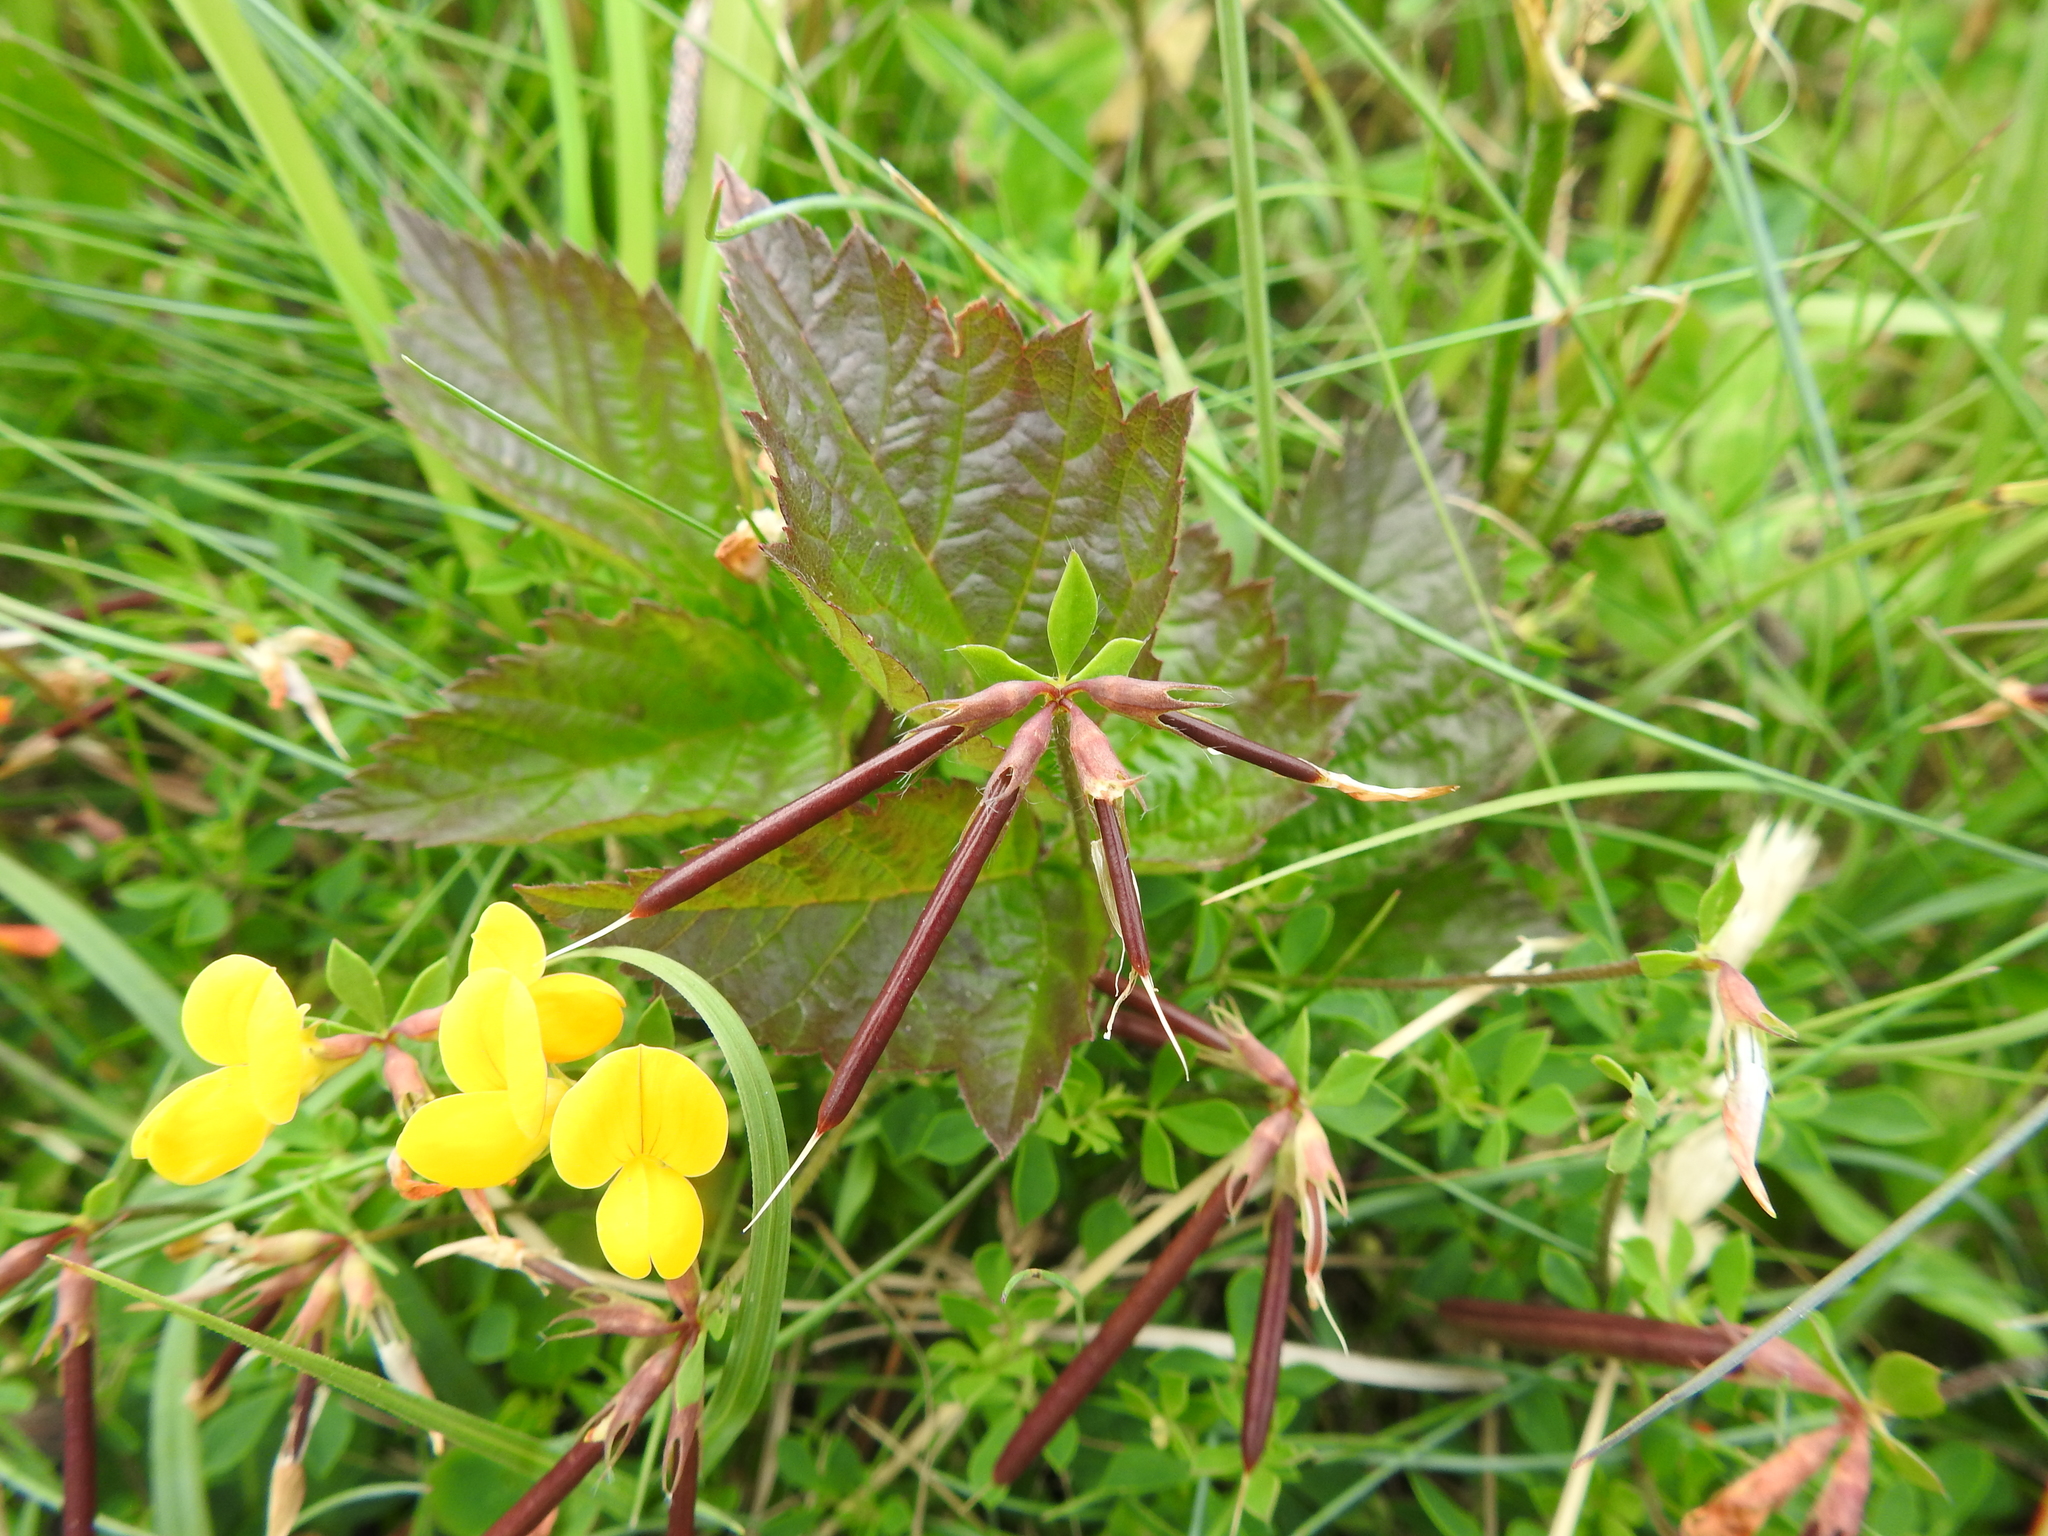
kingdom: Plantae
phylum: Tracheophyta
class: Magnoliopsida
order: Fabales
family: Fabaceae
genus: Lotus
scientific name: Lotus corniculatus
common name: Common bird's-foot-trefoil
